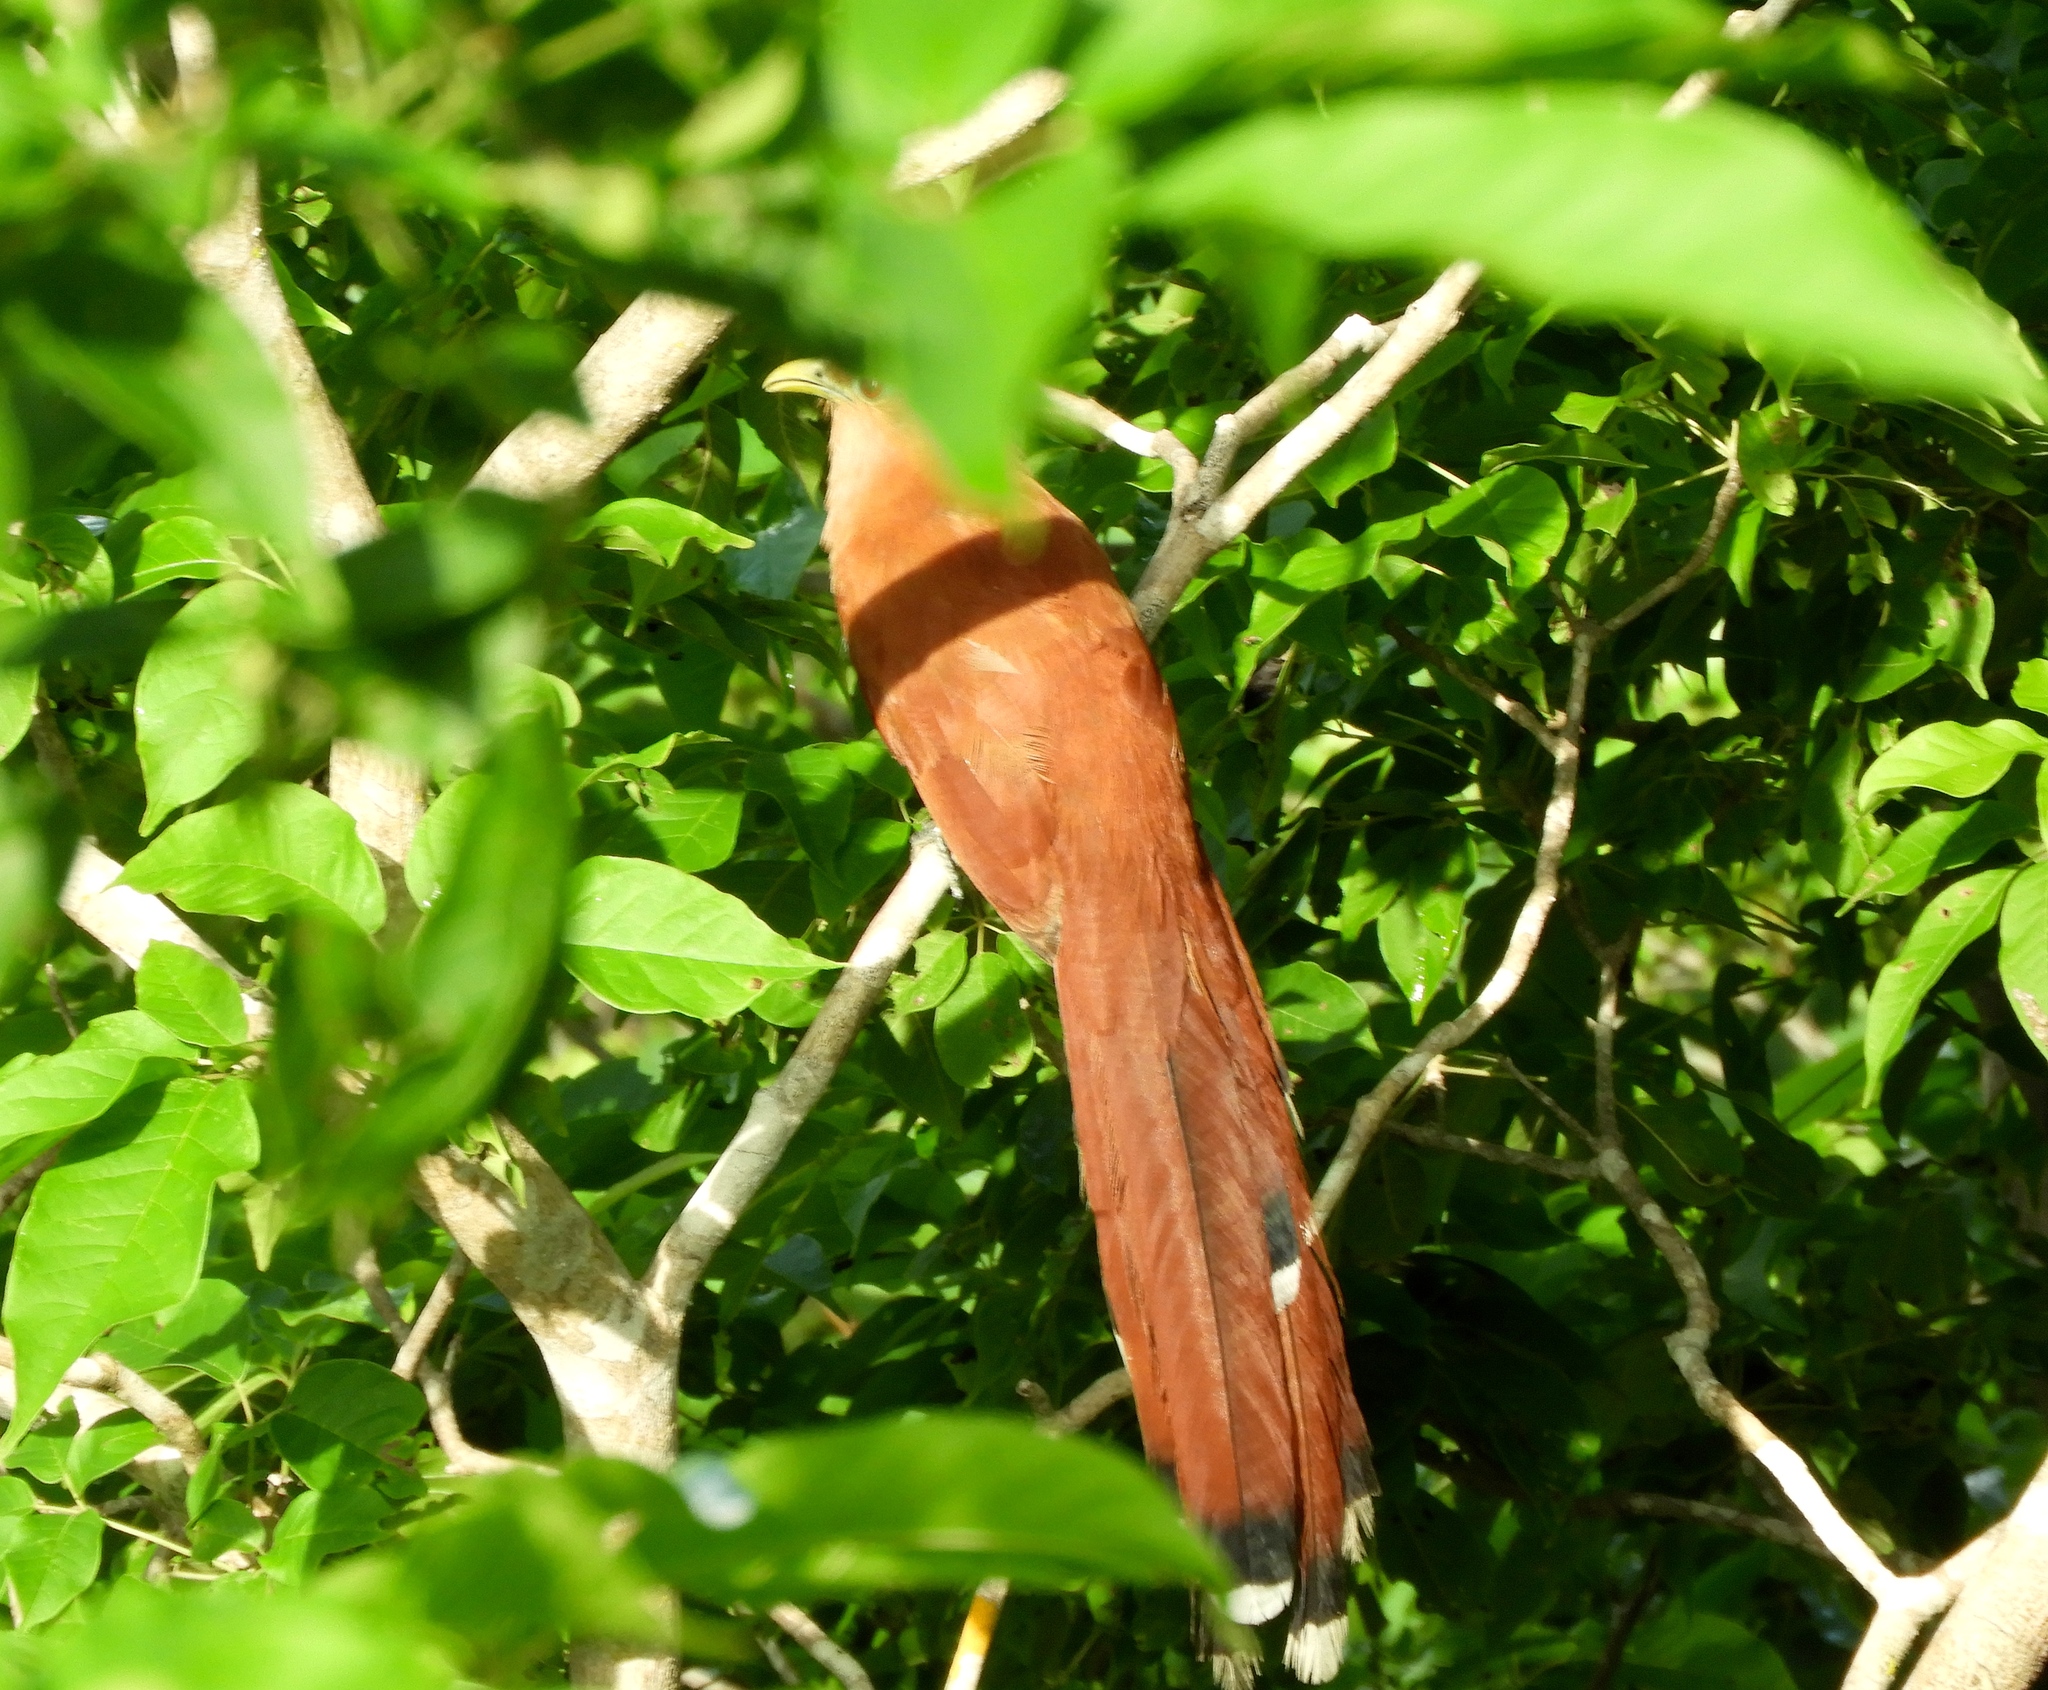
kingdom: Animalia
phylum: Chordata
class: Aves
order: Cuculiformes
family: Cuculidae
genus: Piaya
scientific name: Piaya cayana
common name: Squirrel cuckoo
